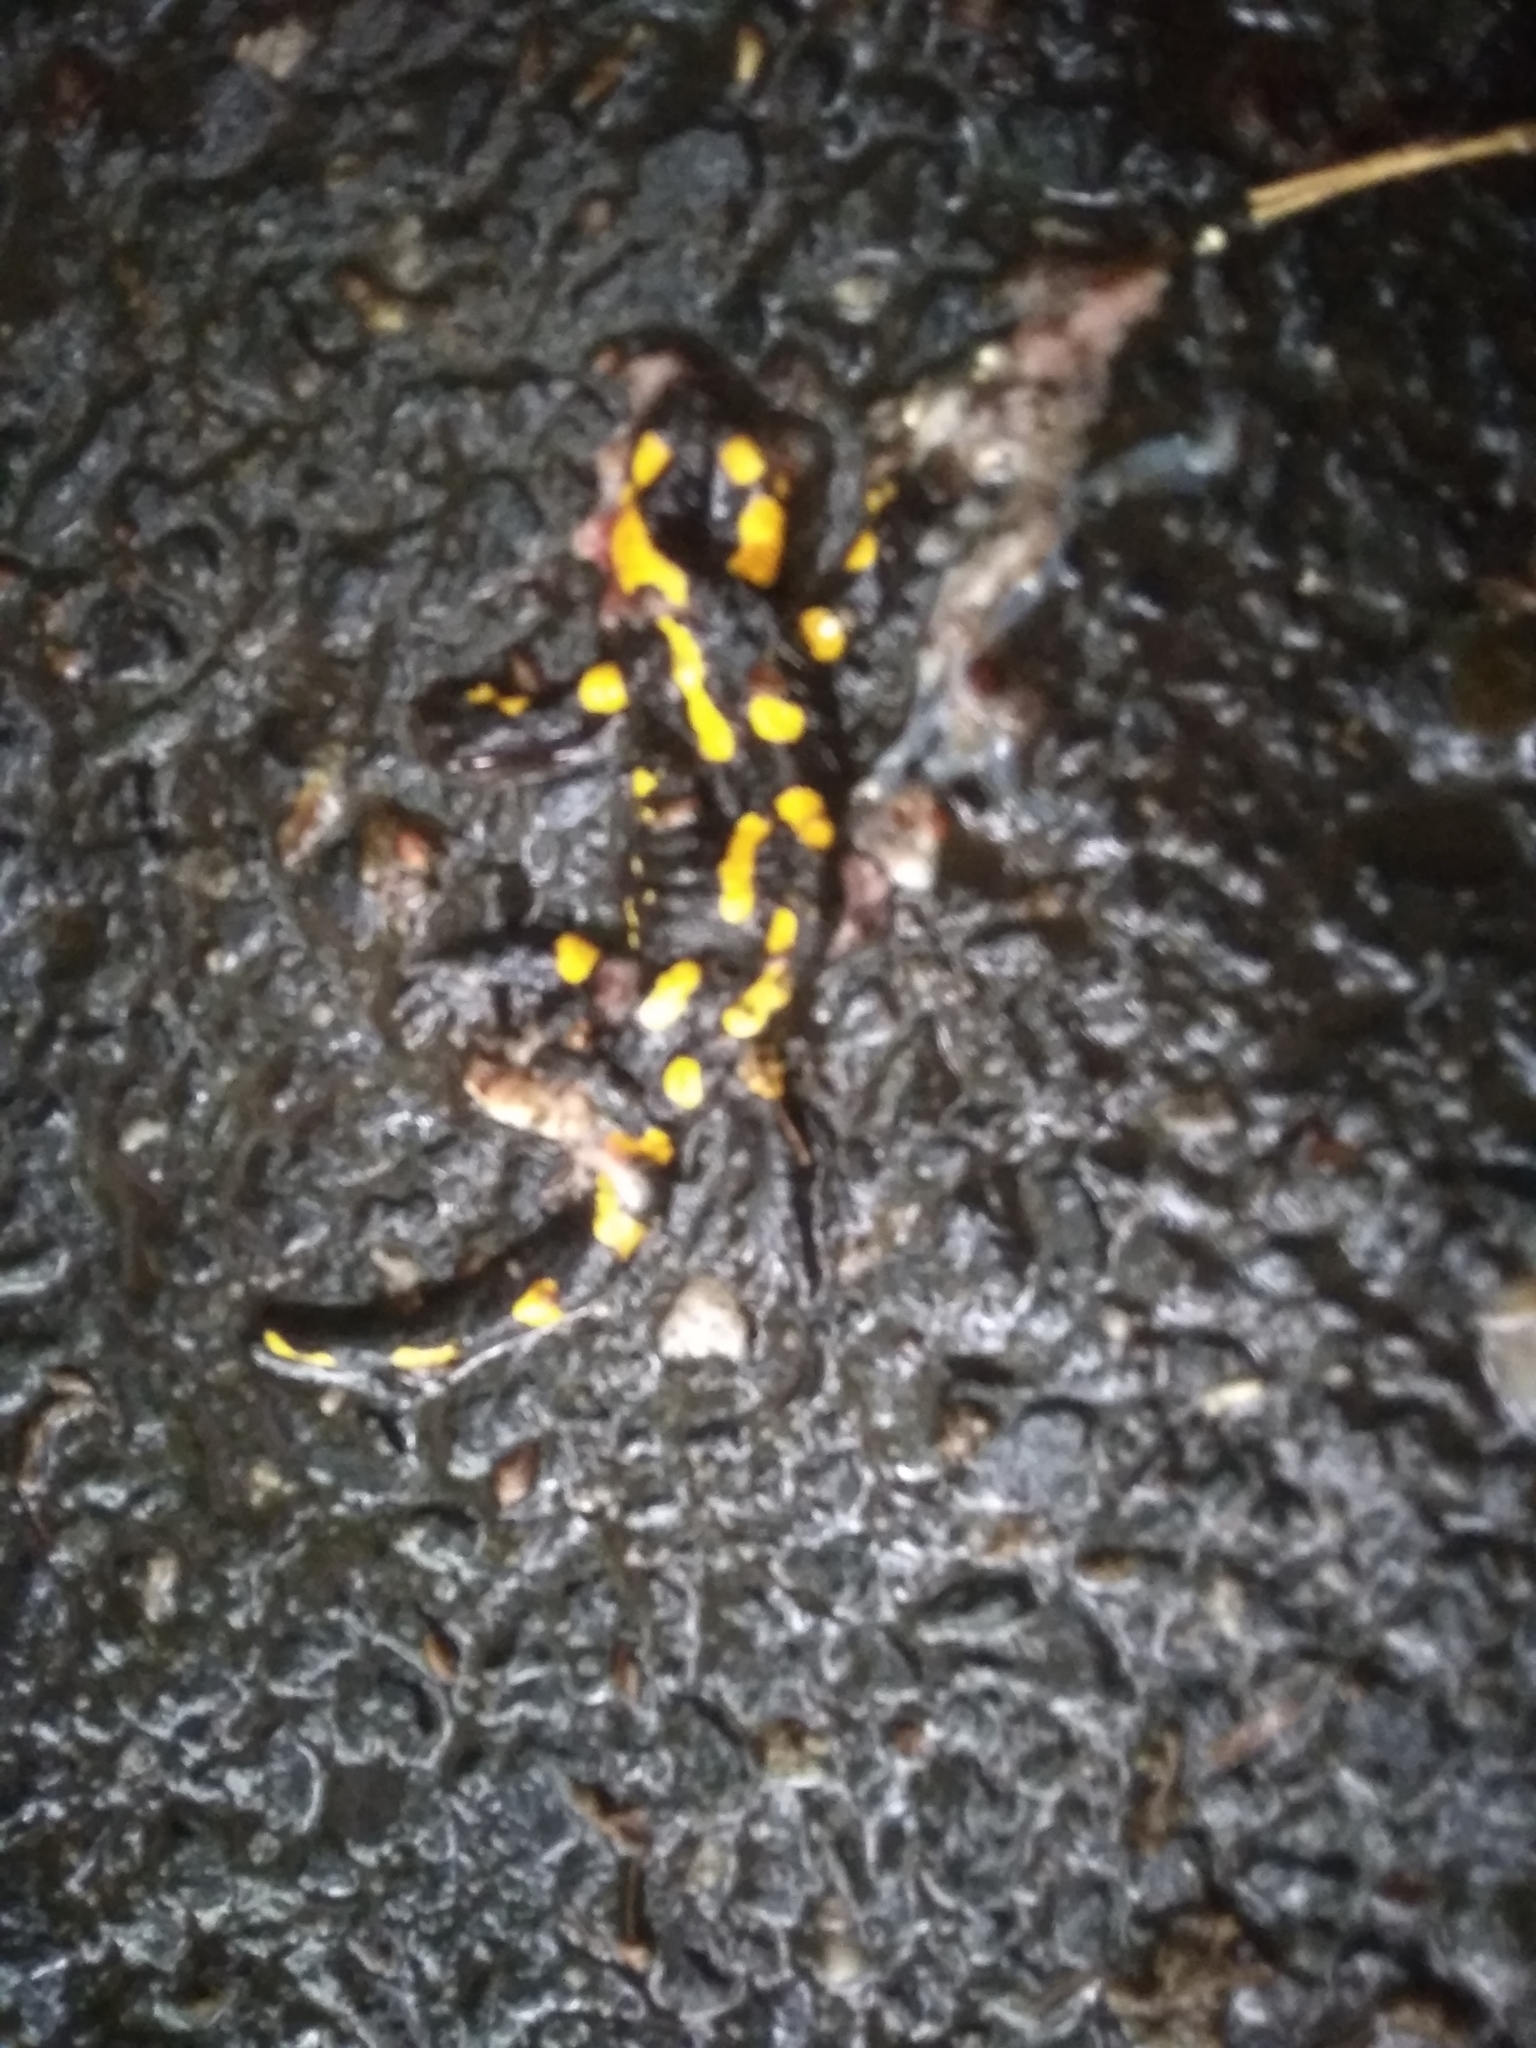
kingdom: Animalia
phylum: Chordata
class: Amphibia
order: Caudata
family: Salamandridae
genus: Salamandra
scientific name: Salamandra salamandra
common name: Fire salamander
